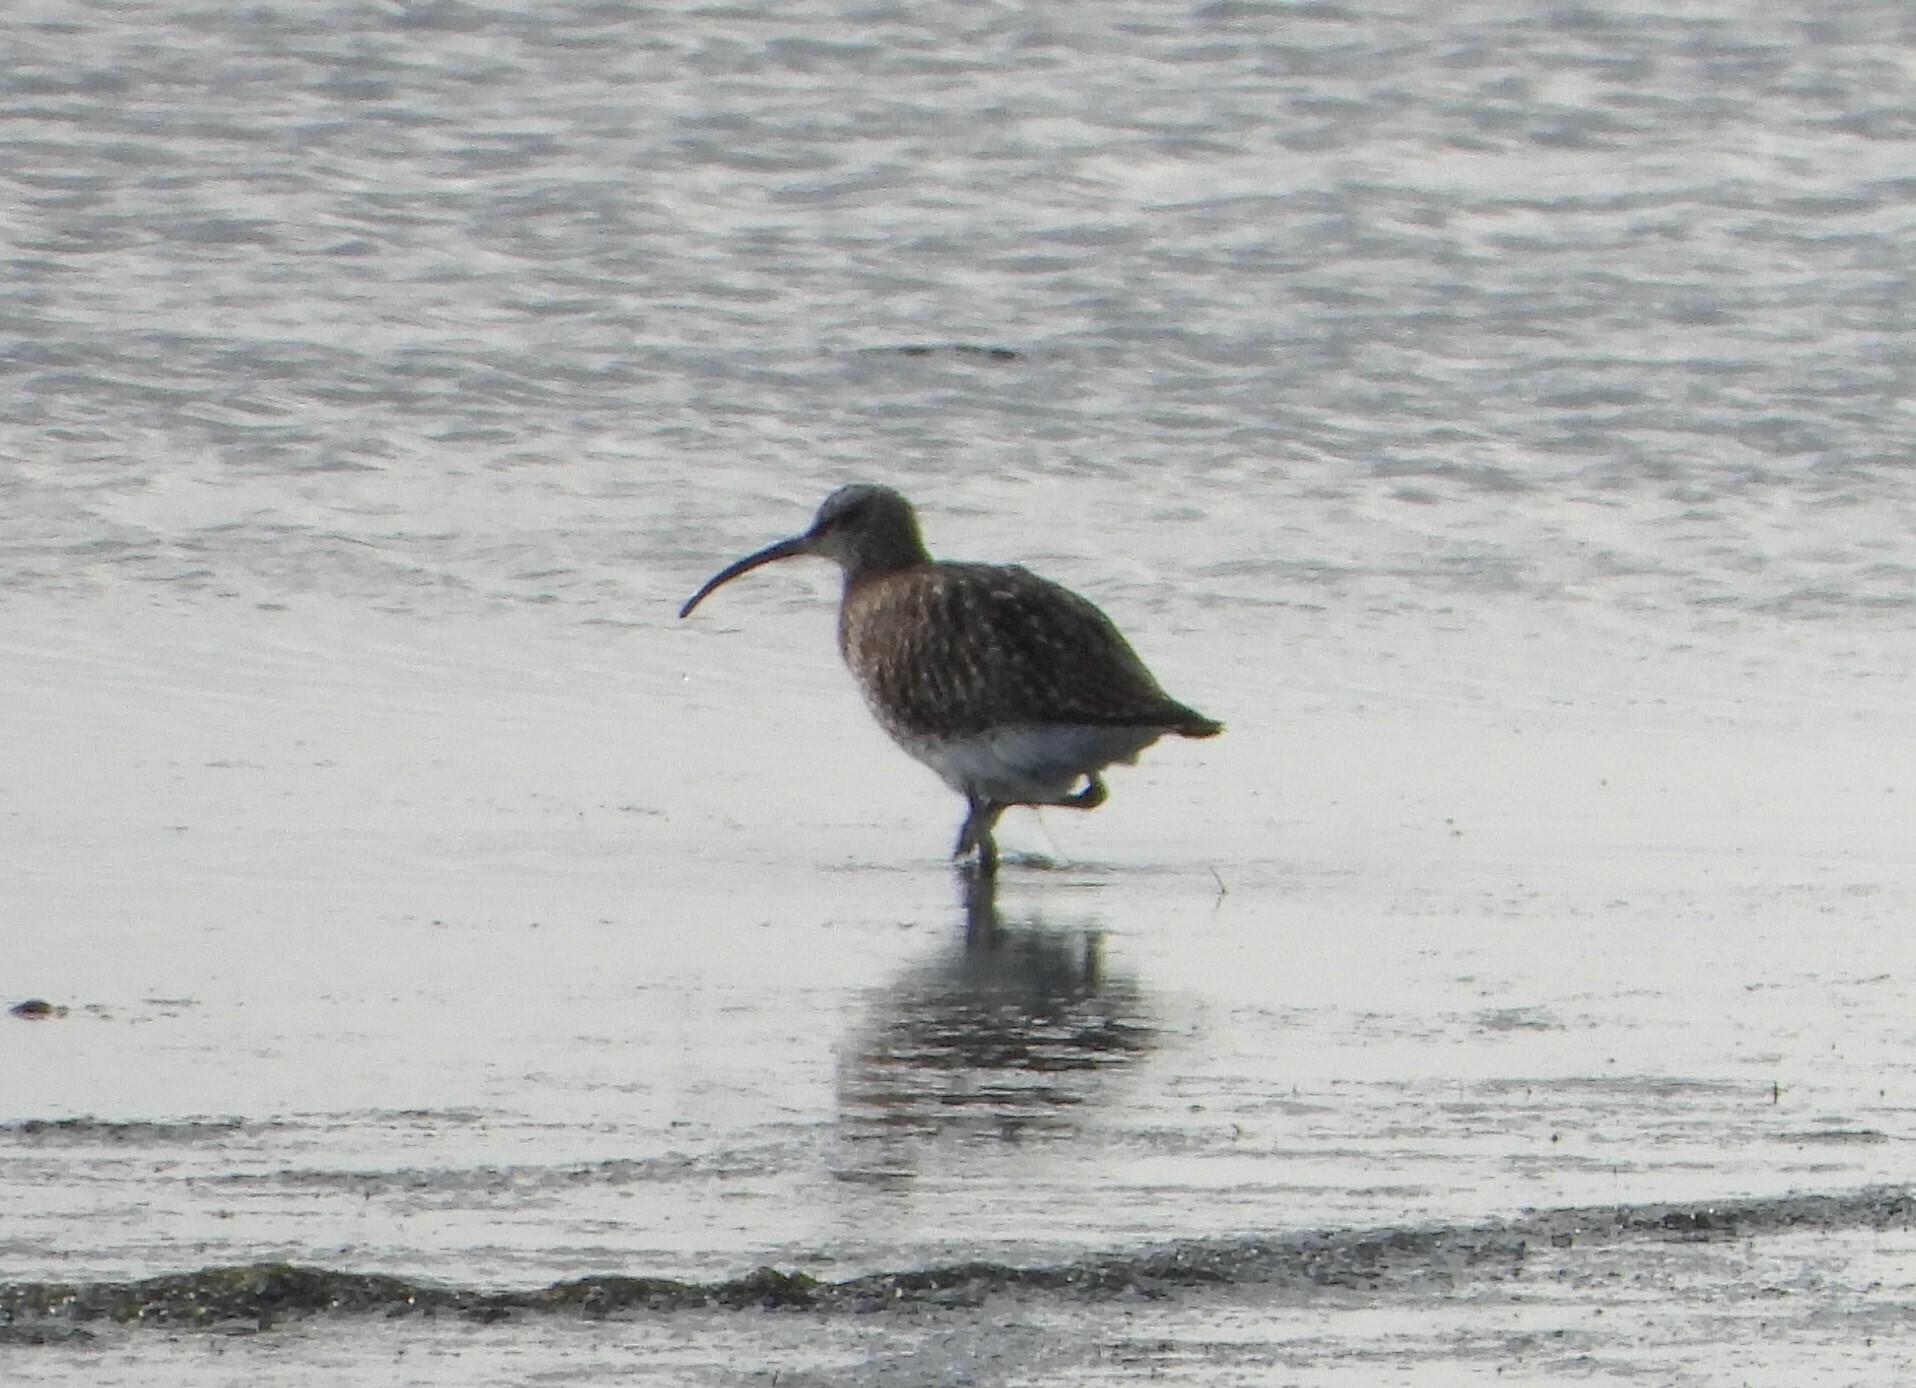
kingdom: Animalia
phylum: Chordata
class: Aves
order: Charadriiformes
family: Scolopacidae
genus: Numenius
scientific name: Numenius arquata
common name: Eurasian curlew
